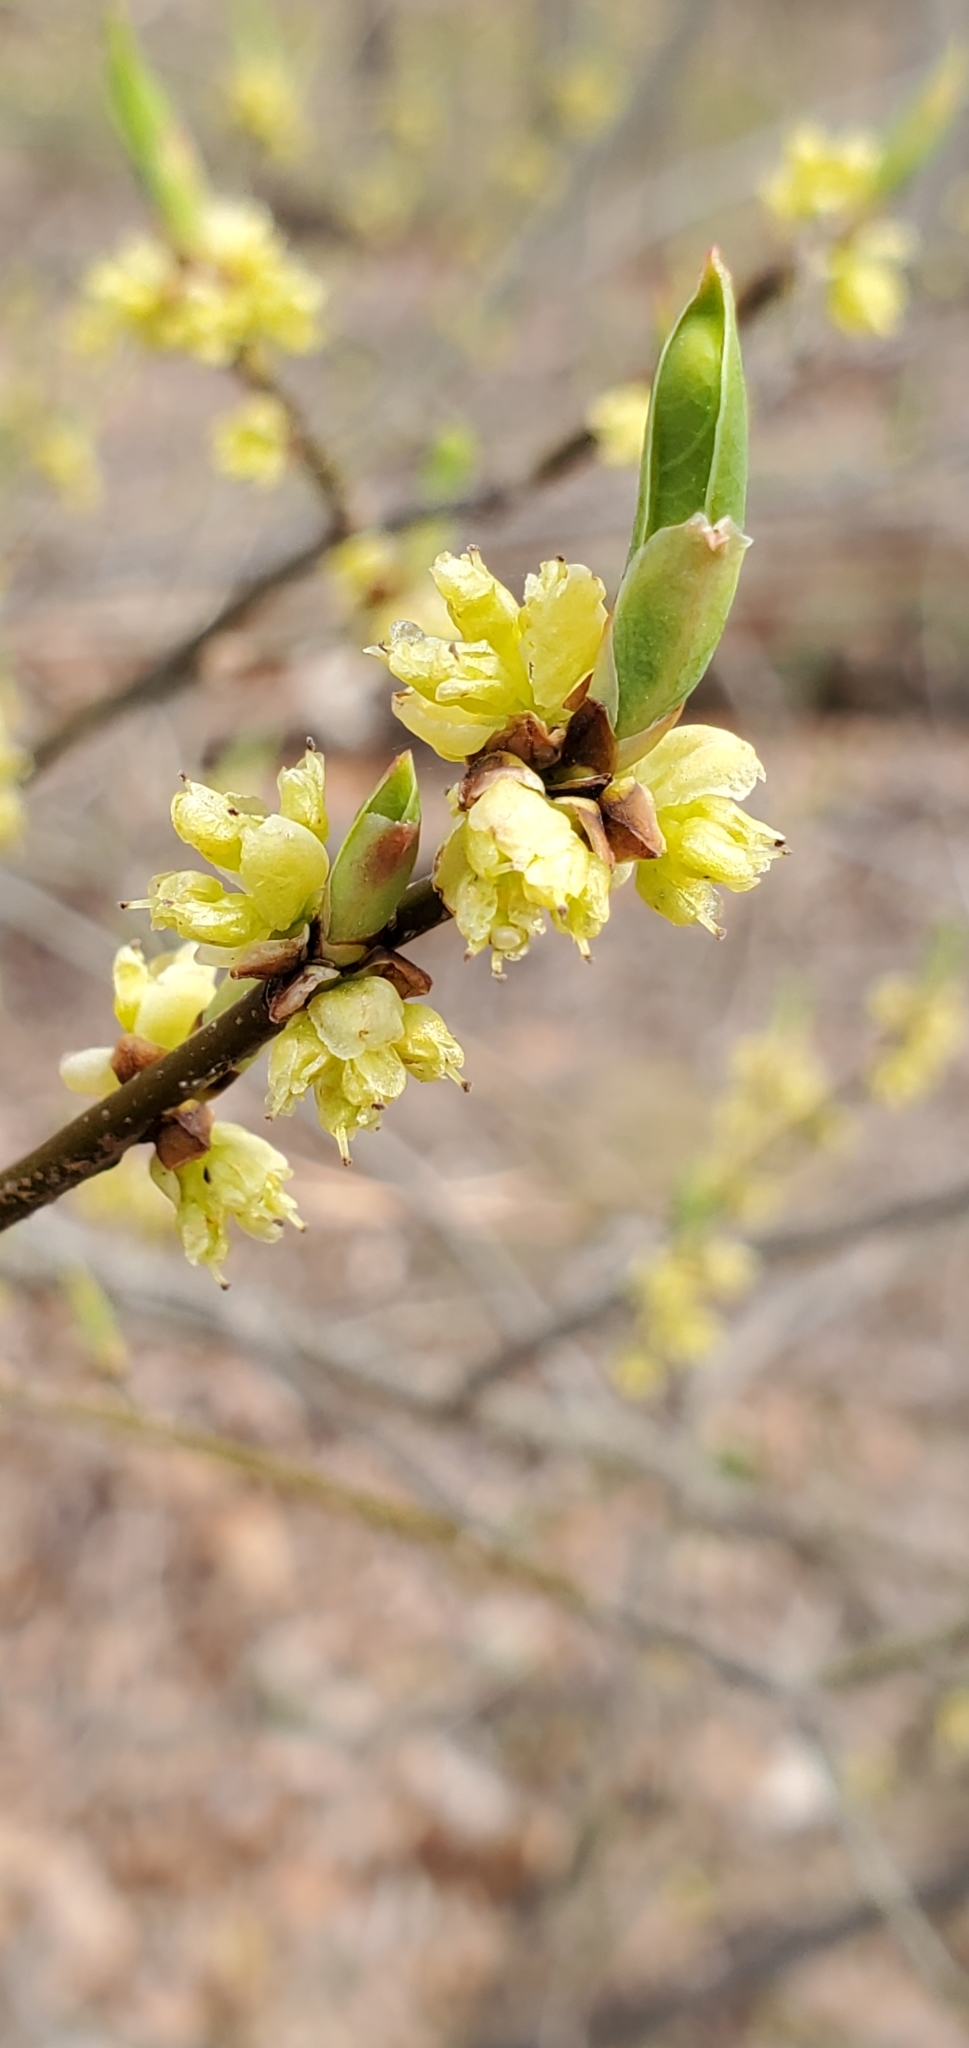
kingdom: Plantae
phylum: Tracheophyta
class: Magnoliopsida
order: Laurales
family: Lauraceae
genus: Lindera
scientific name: Lindera benzoin
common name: Spicebush
